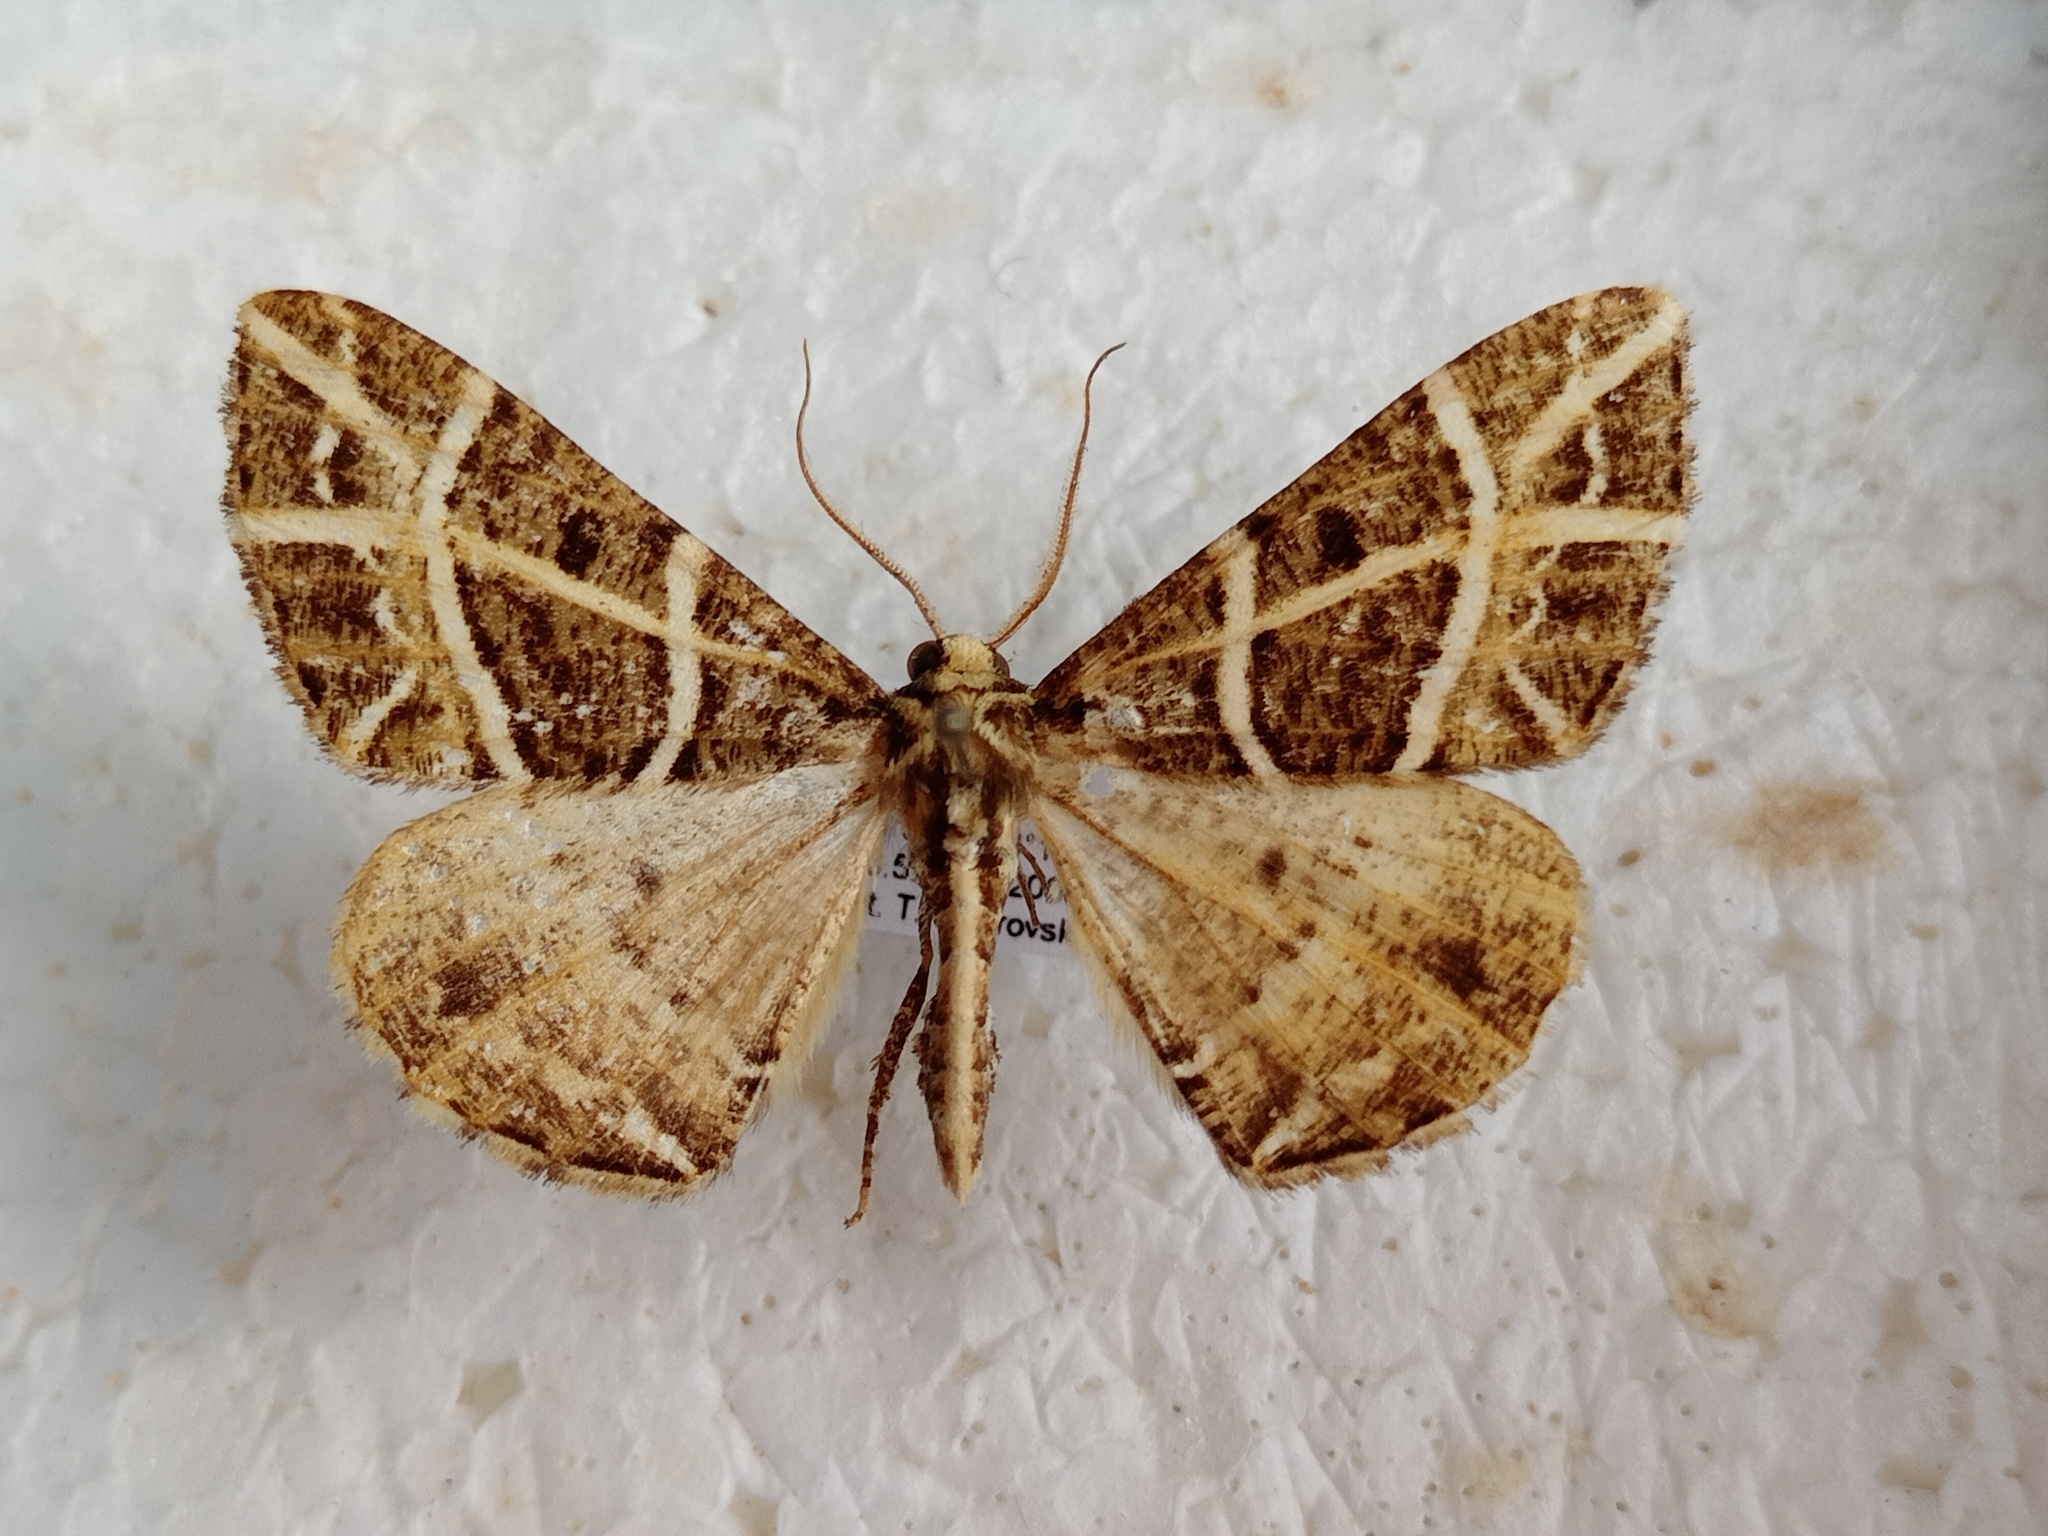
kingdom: Animalia
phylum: Arthropoda
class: Insecta
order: Lepidoptera
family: Geometridae
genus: Arichanna
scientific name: Arichanna transfasciata
